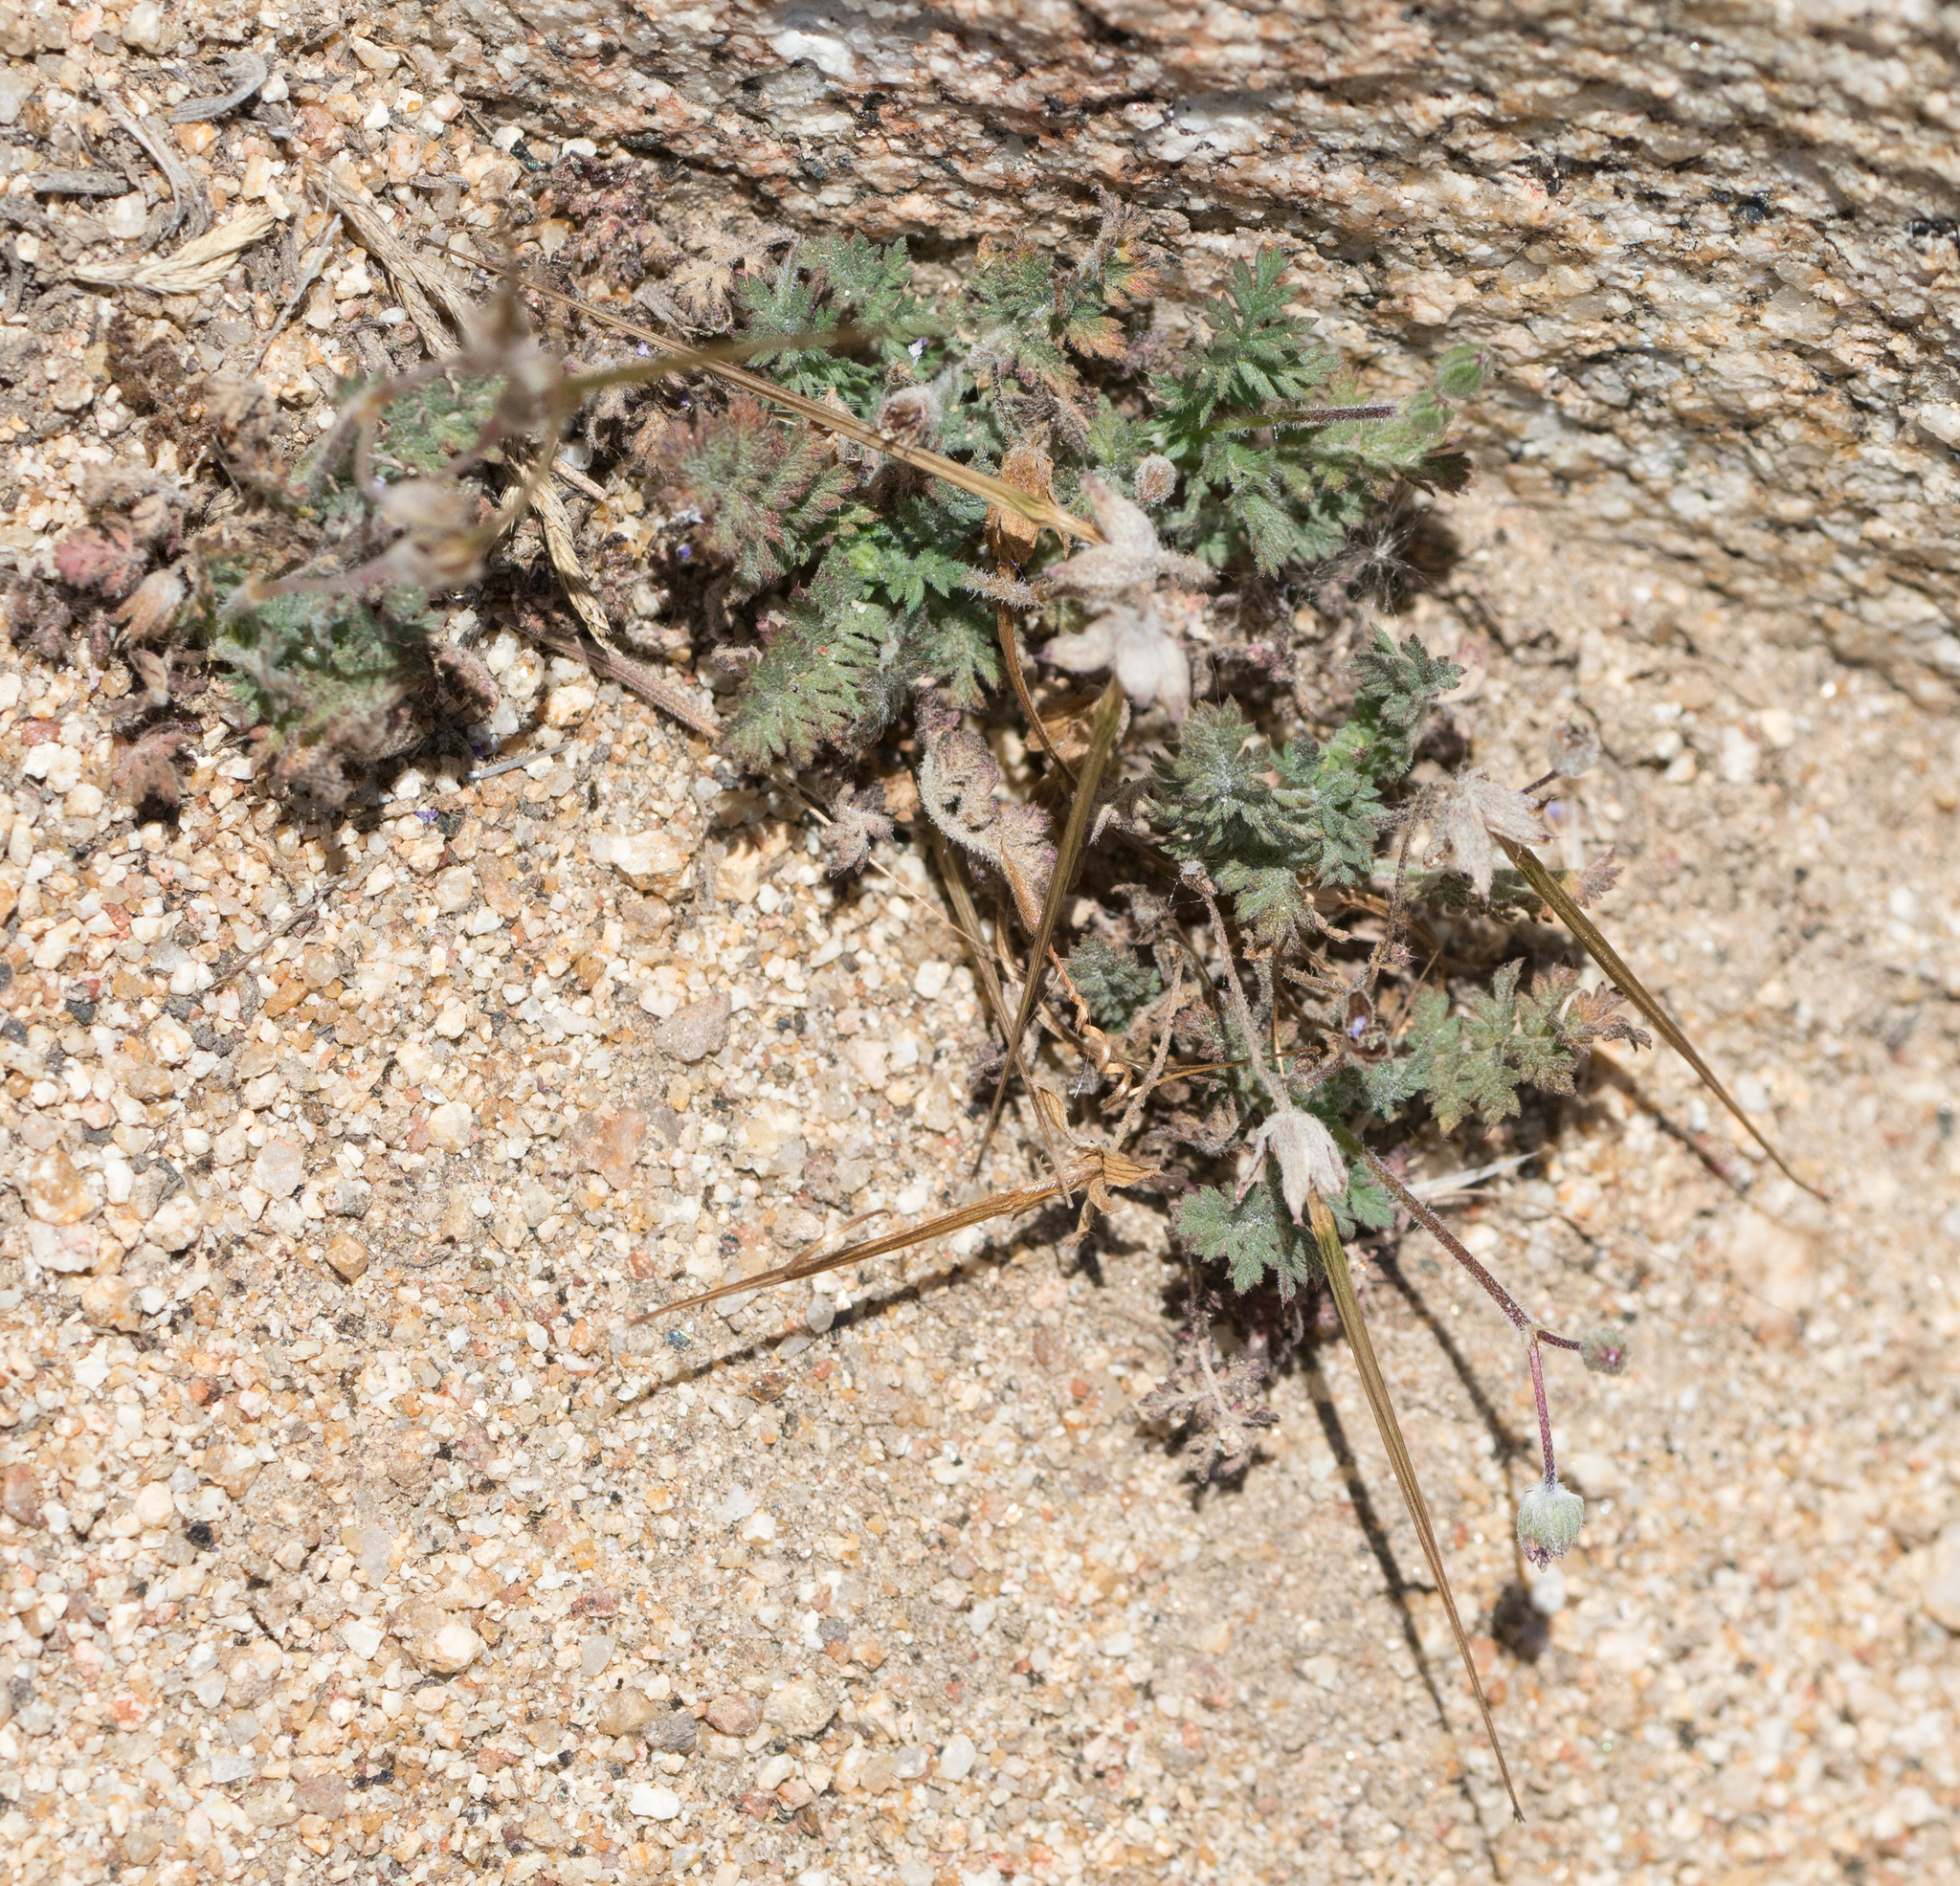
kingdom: Plantae
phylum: Tracheophyta
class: Magnoliopsida
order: Geraniales
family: Geraniaceae
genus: Erodium
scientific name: Erodium cicutarium
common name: Common stork's-bill
